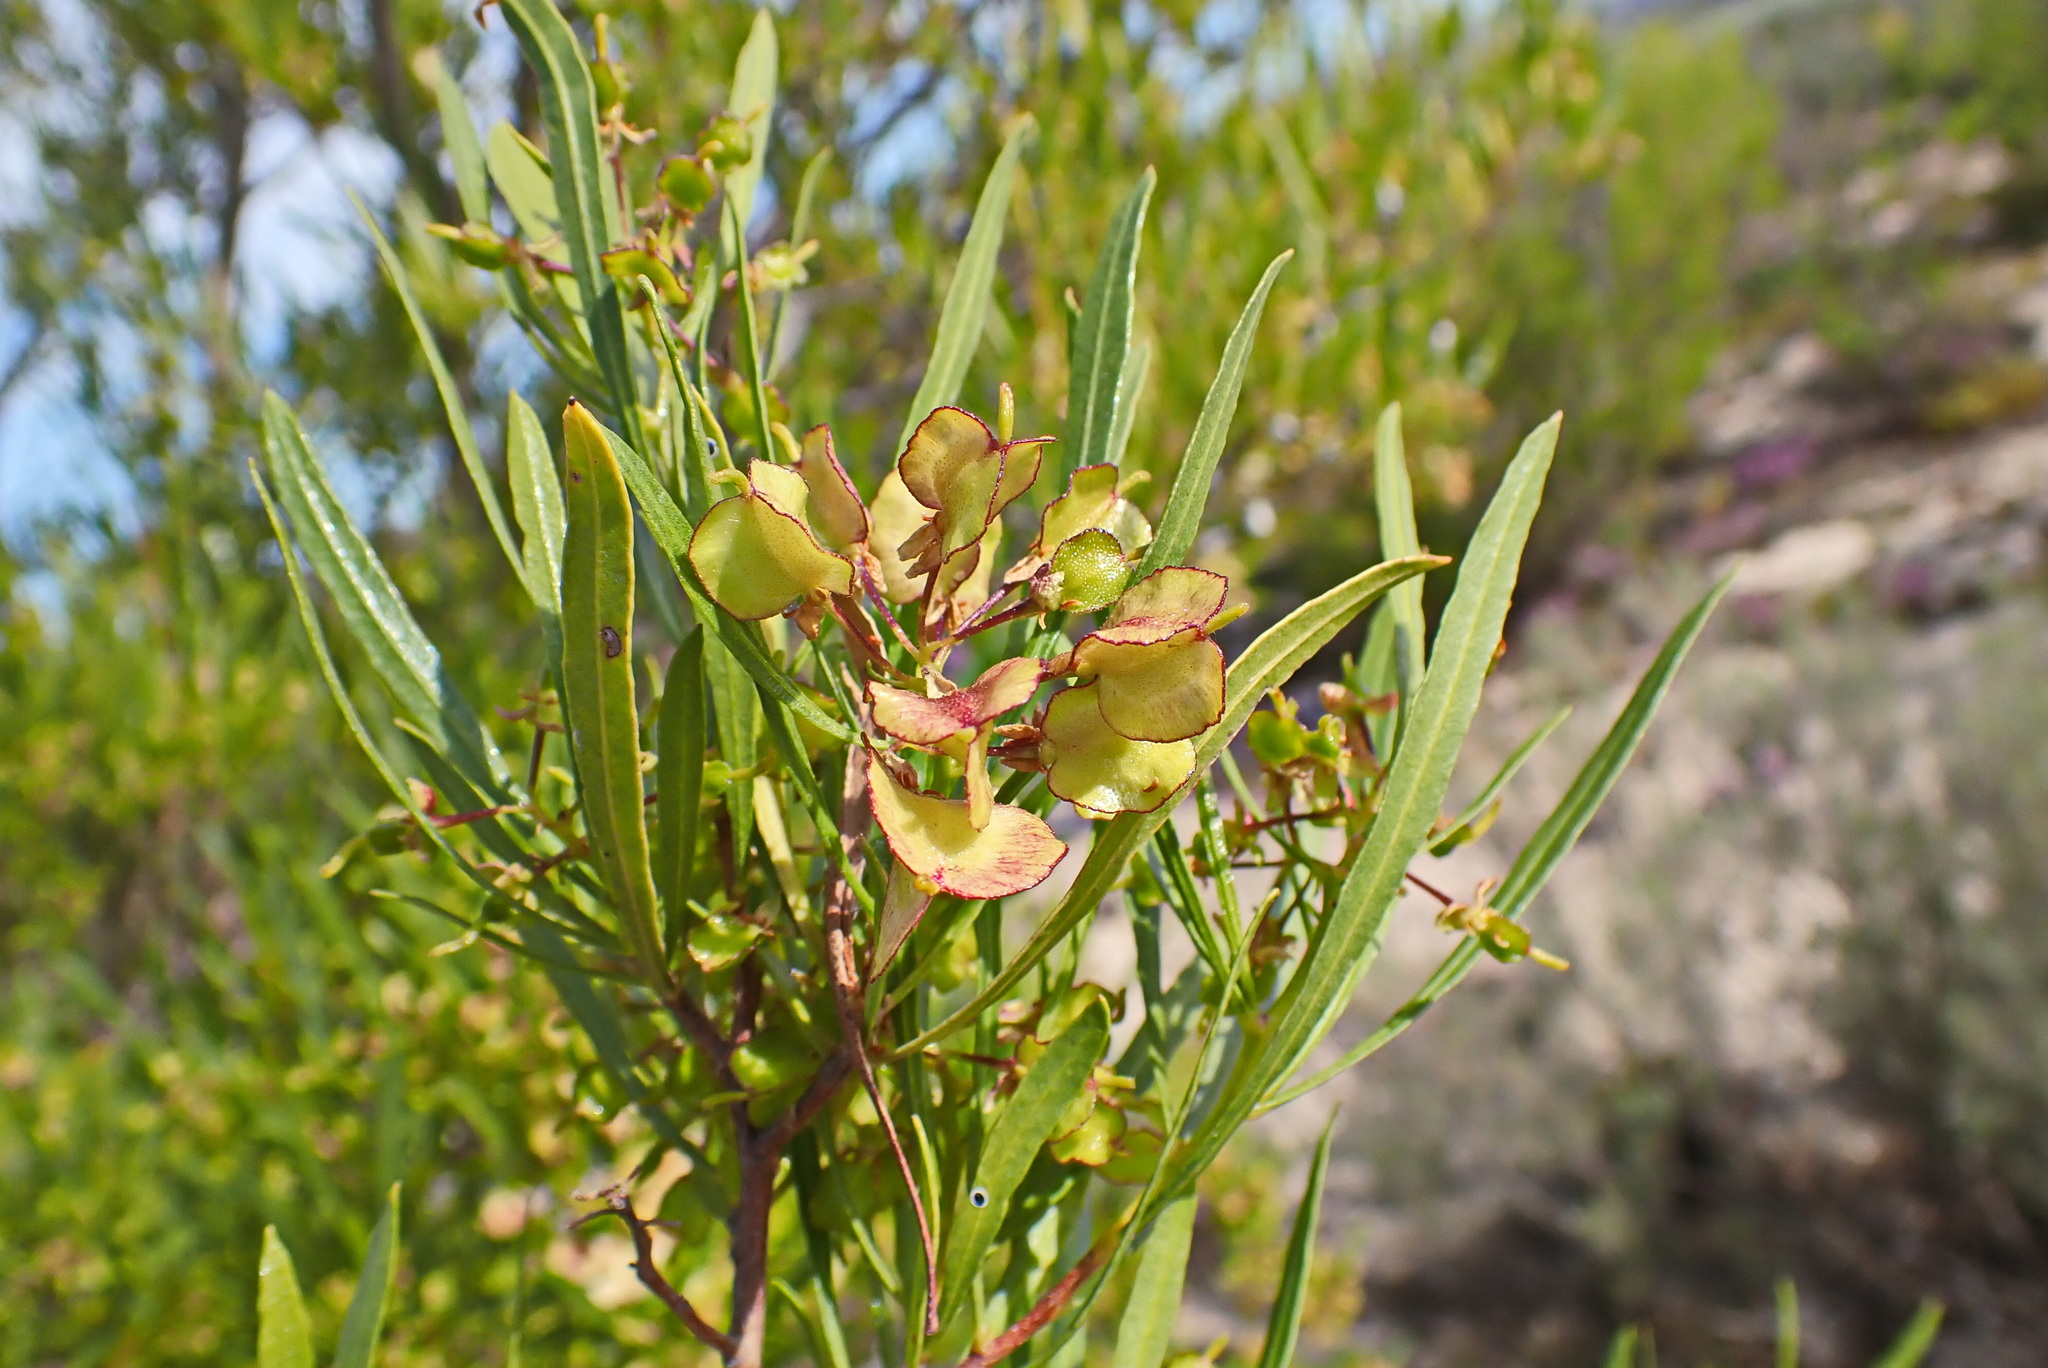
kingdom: Plantae
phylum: Tracheophyta
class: Magnoliopsida
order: Sapindales
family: Sapindaceae
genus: Dodonaea
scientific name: Dodonaea viscosa
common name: Hopbush
